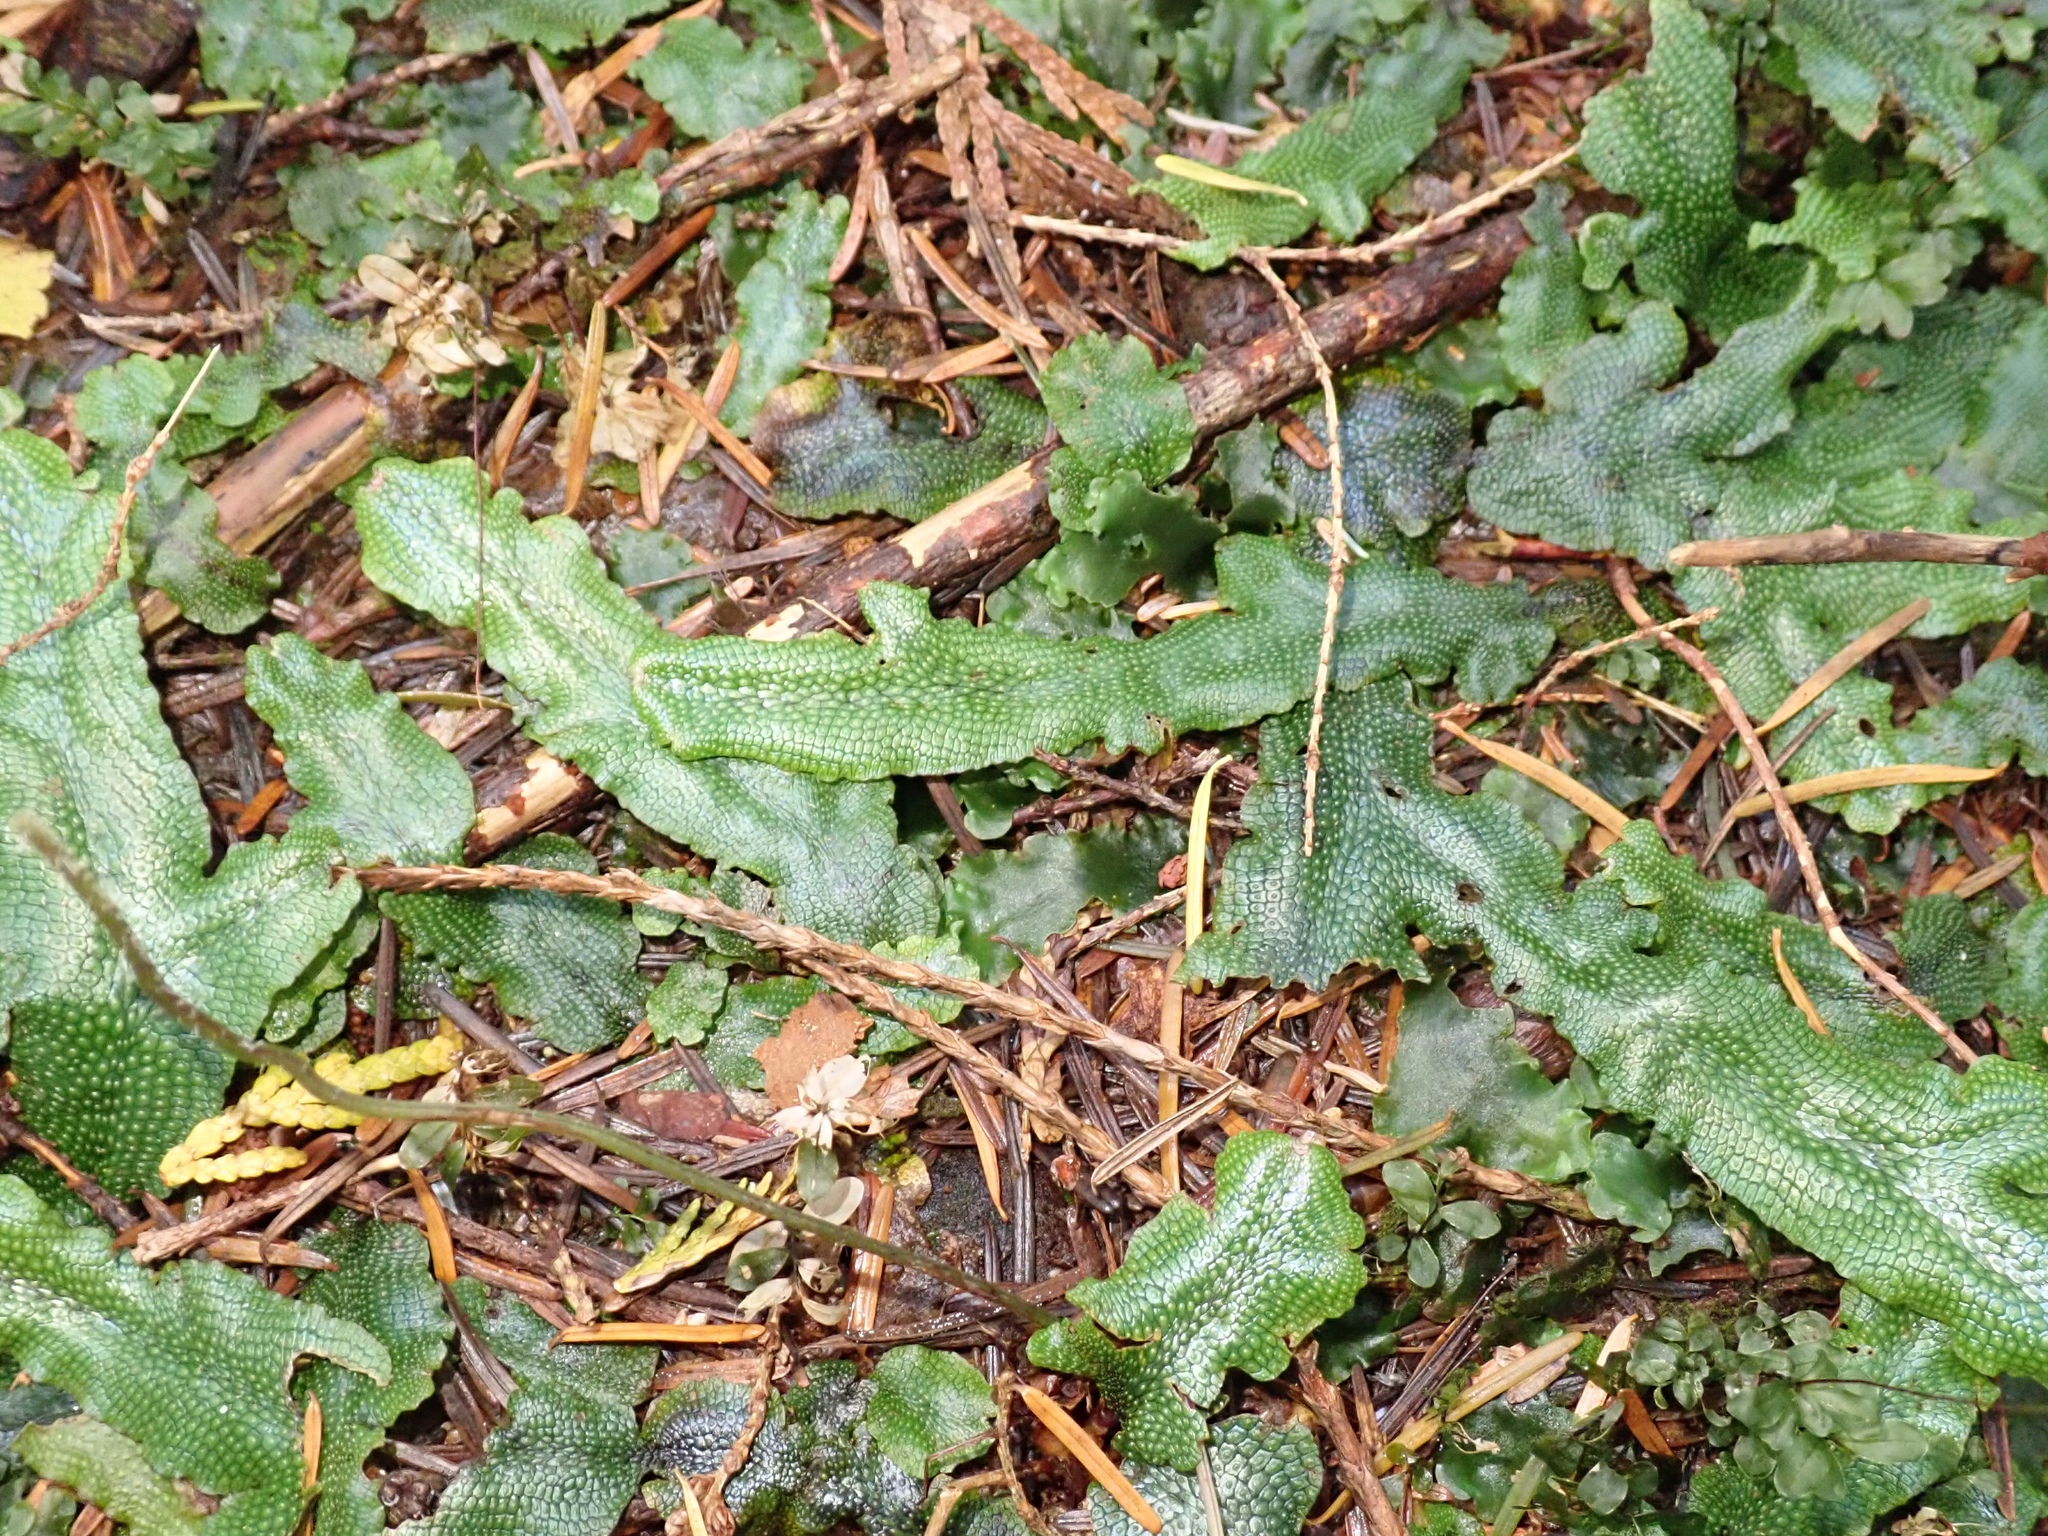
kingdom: Plantae
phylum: Marchantiophyta
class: Marchantiopsida
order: Marchantiales
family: Conocephalaceae
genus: Conocephalum
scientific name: Conocephalum conicum
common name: Great scented liverwort
